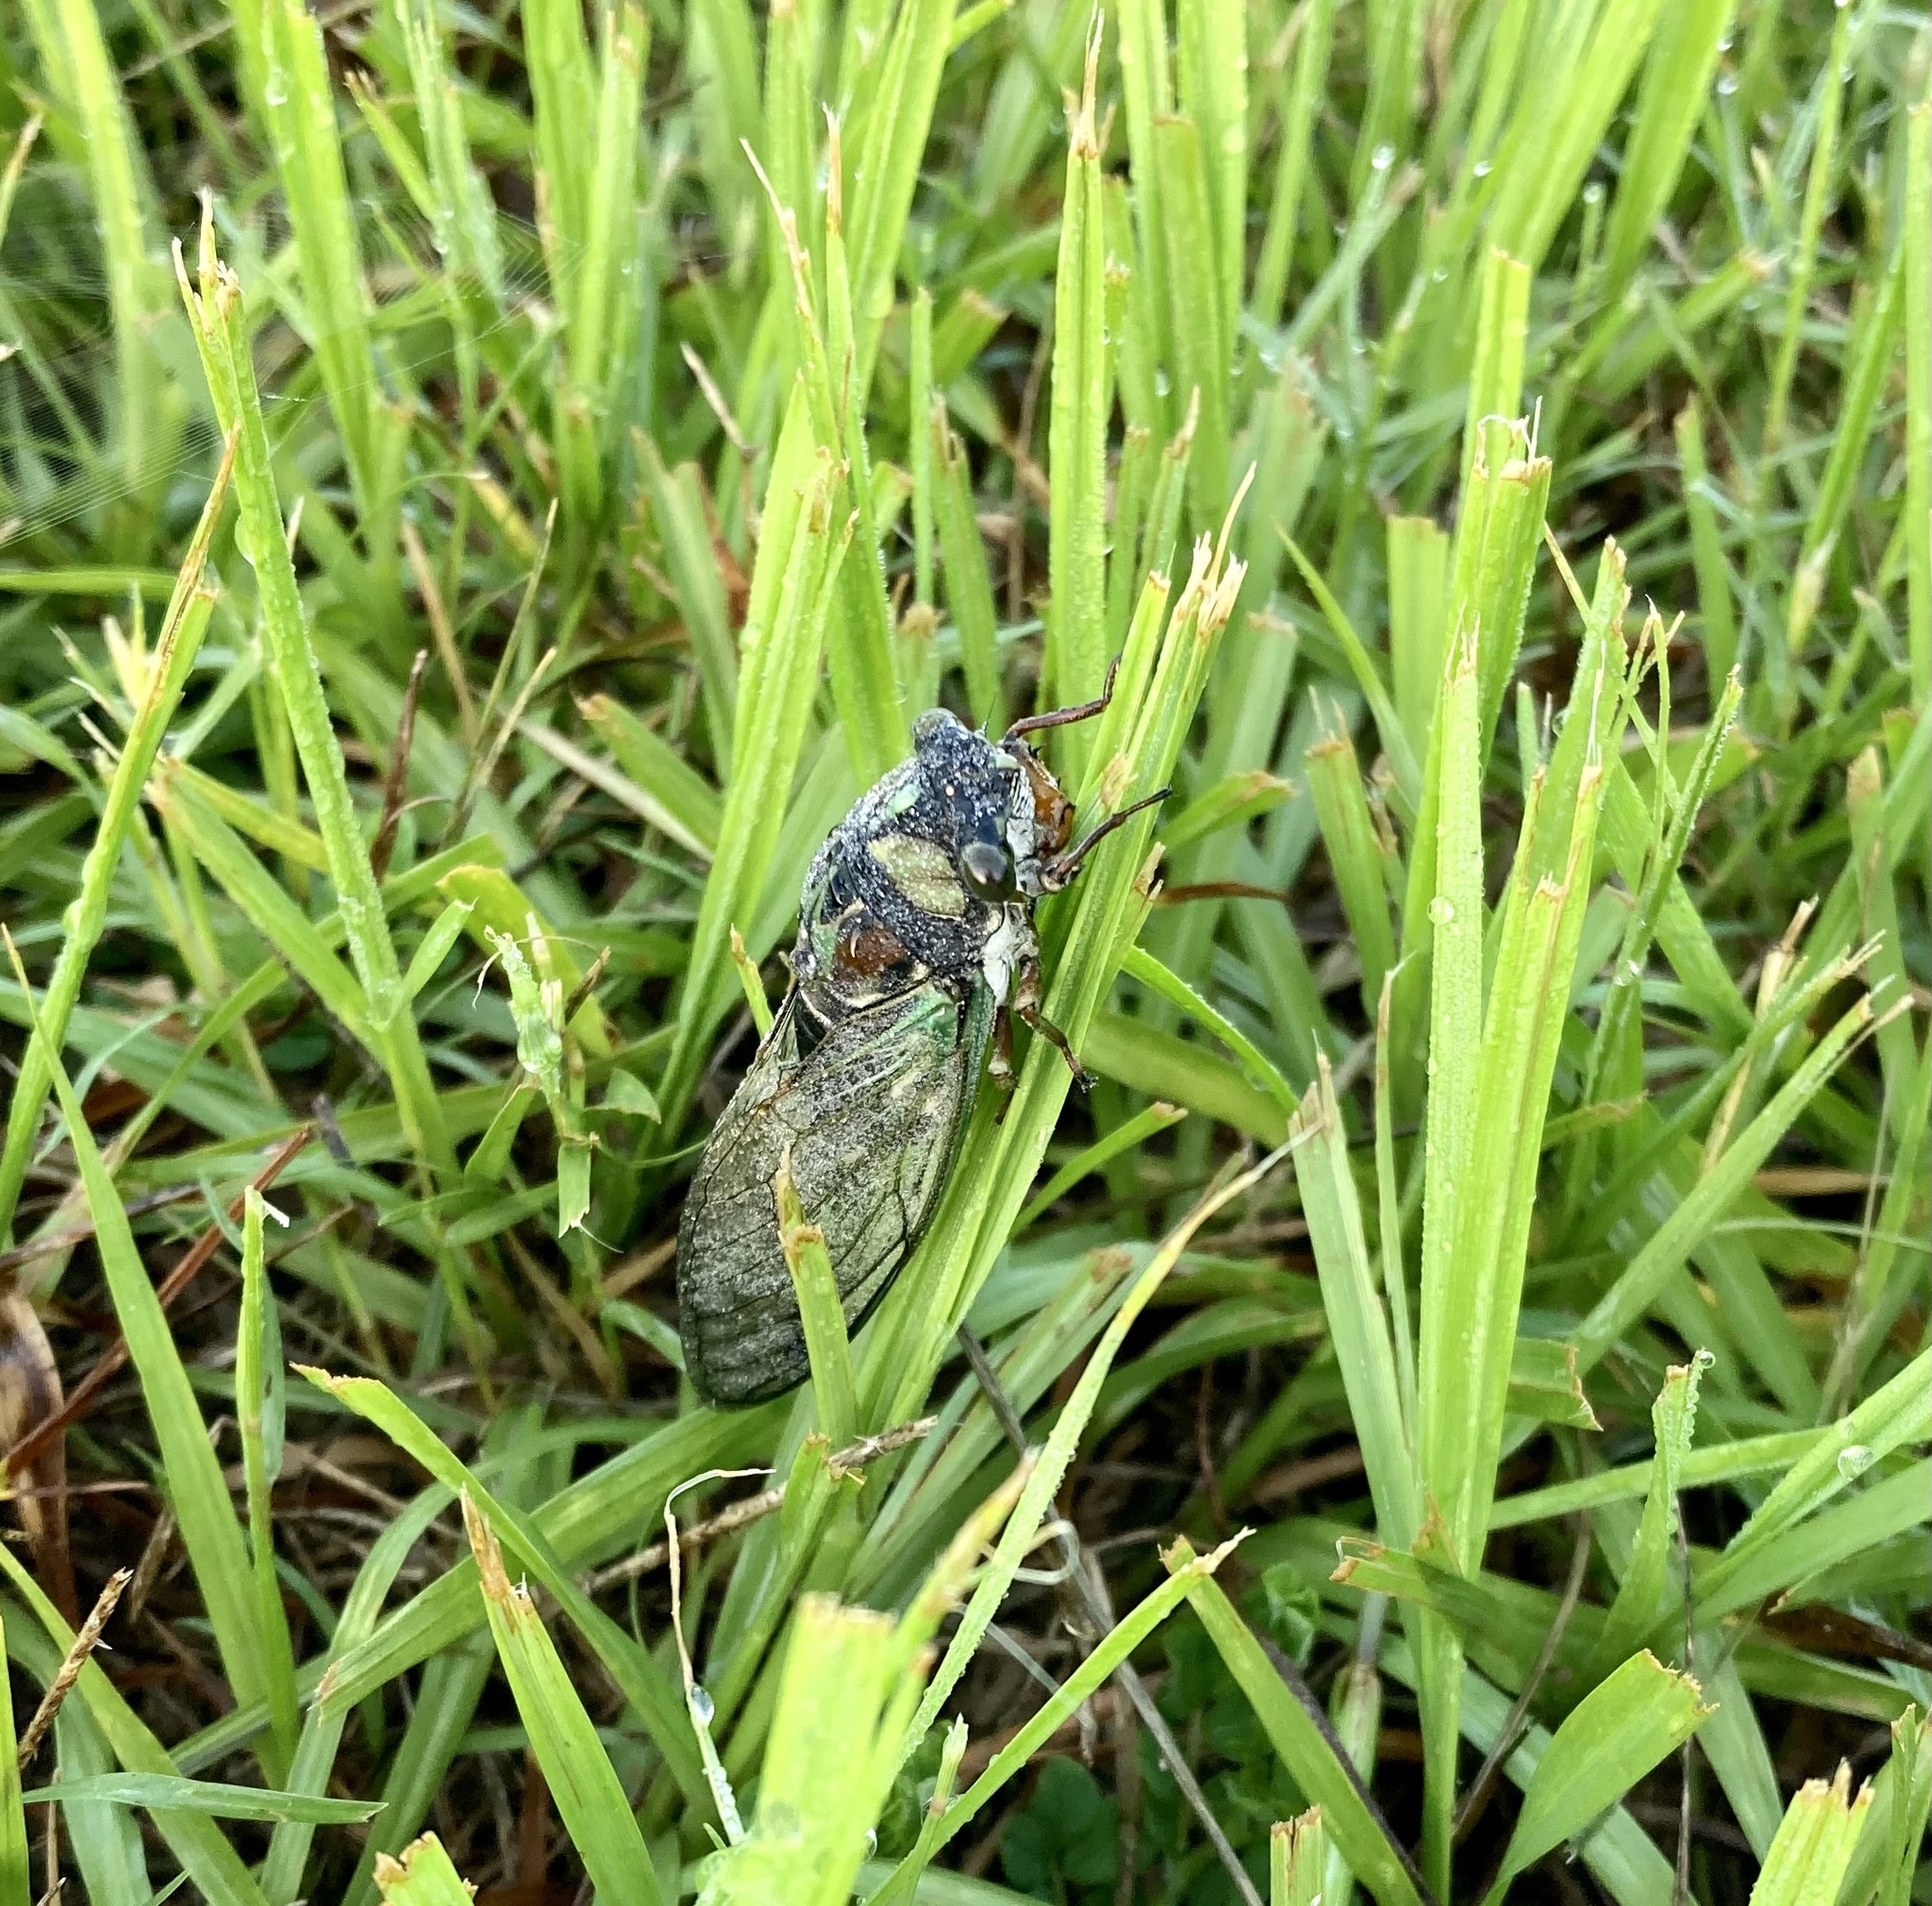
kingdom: Animalia
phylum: Arthropoda
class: Insecta
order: Hemiptera
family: Cicadidae
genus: Neotibicen
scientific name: Neotibicen lyricen
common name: Lyric cicada
